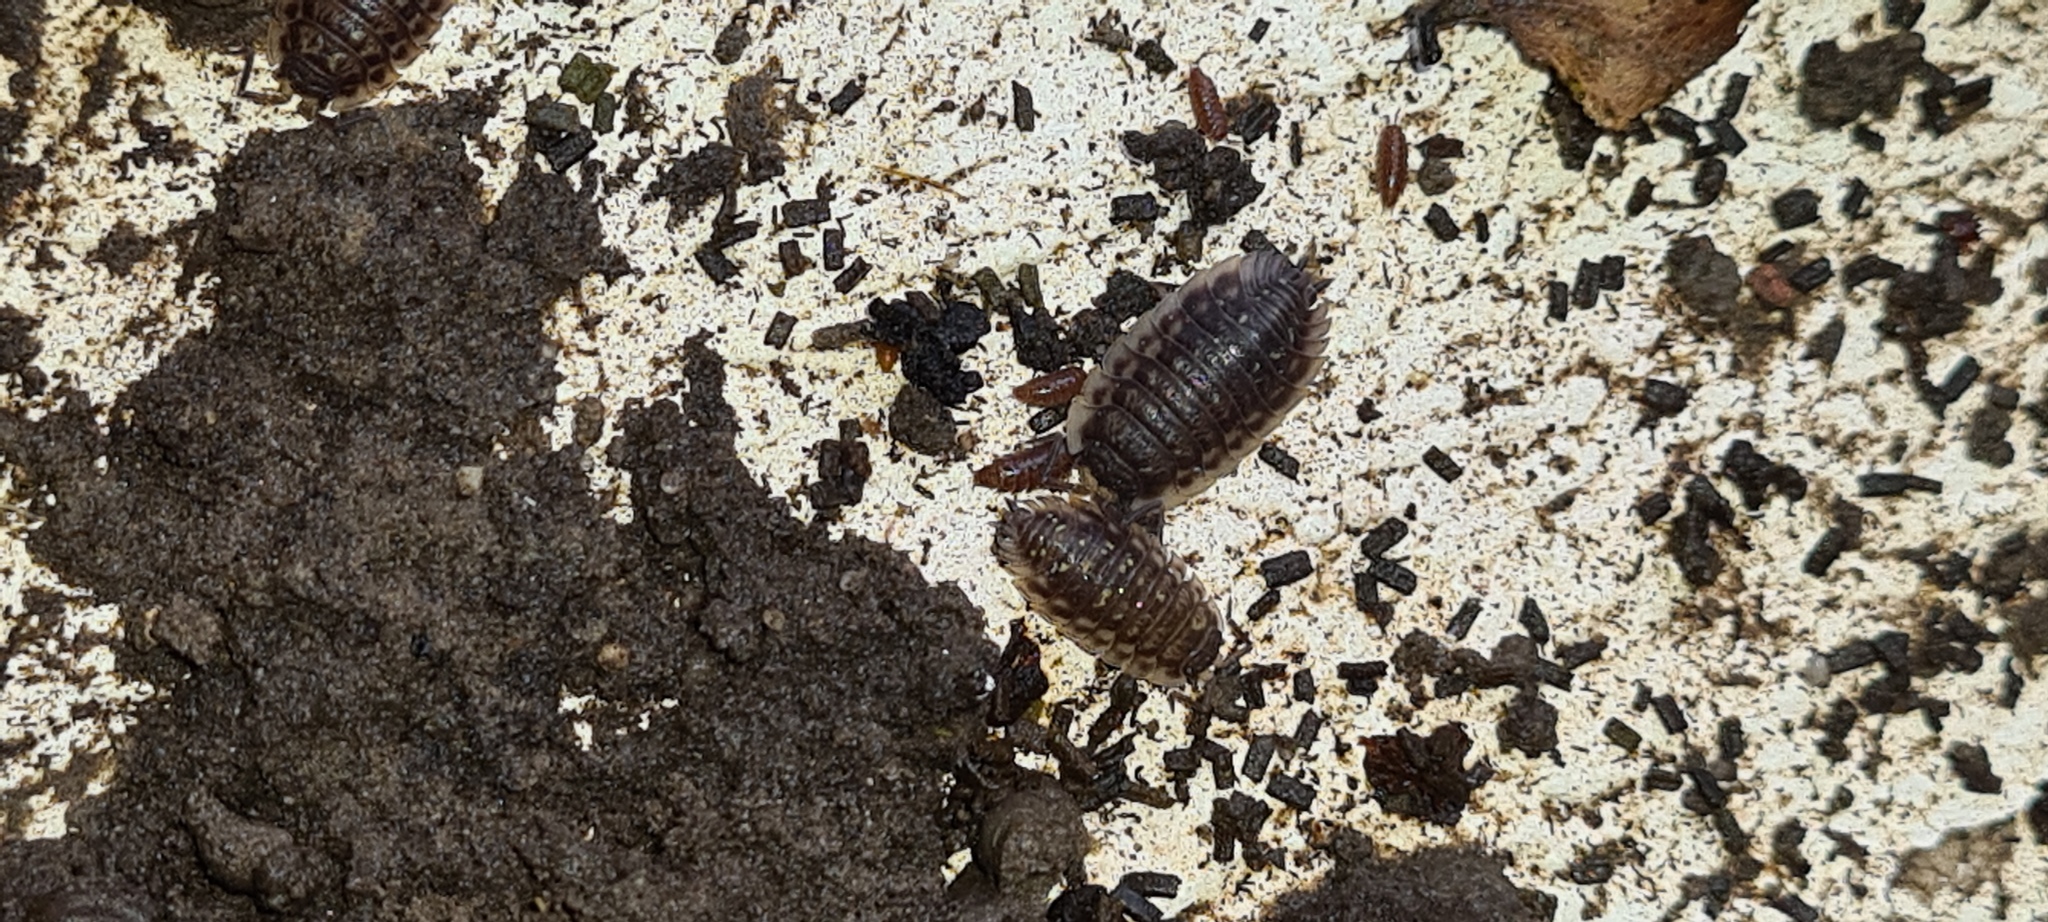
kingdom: Animalia
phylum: Arthropoda
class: Malacostraca
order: Isopoda
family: Porcellionidae
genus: Porcellio
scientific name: Porcellio scaber
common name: Common rough woodlouse
